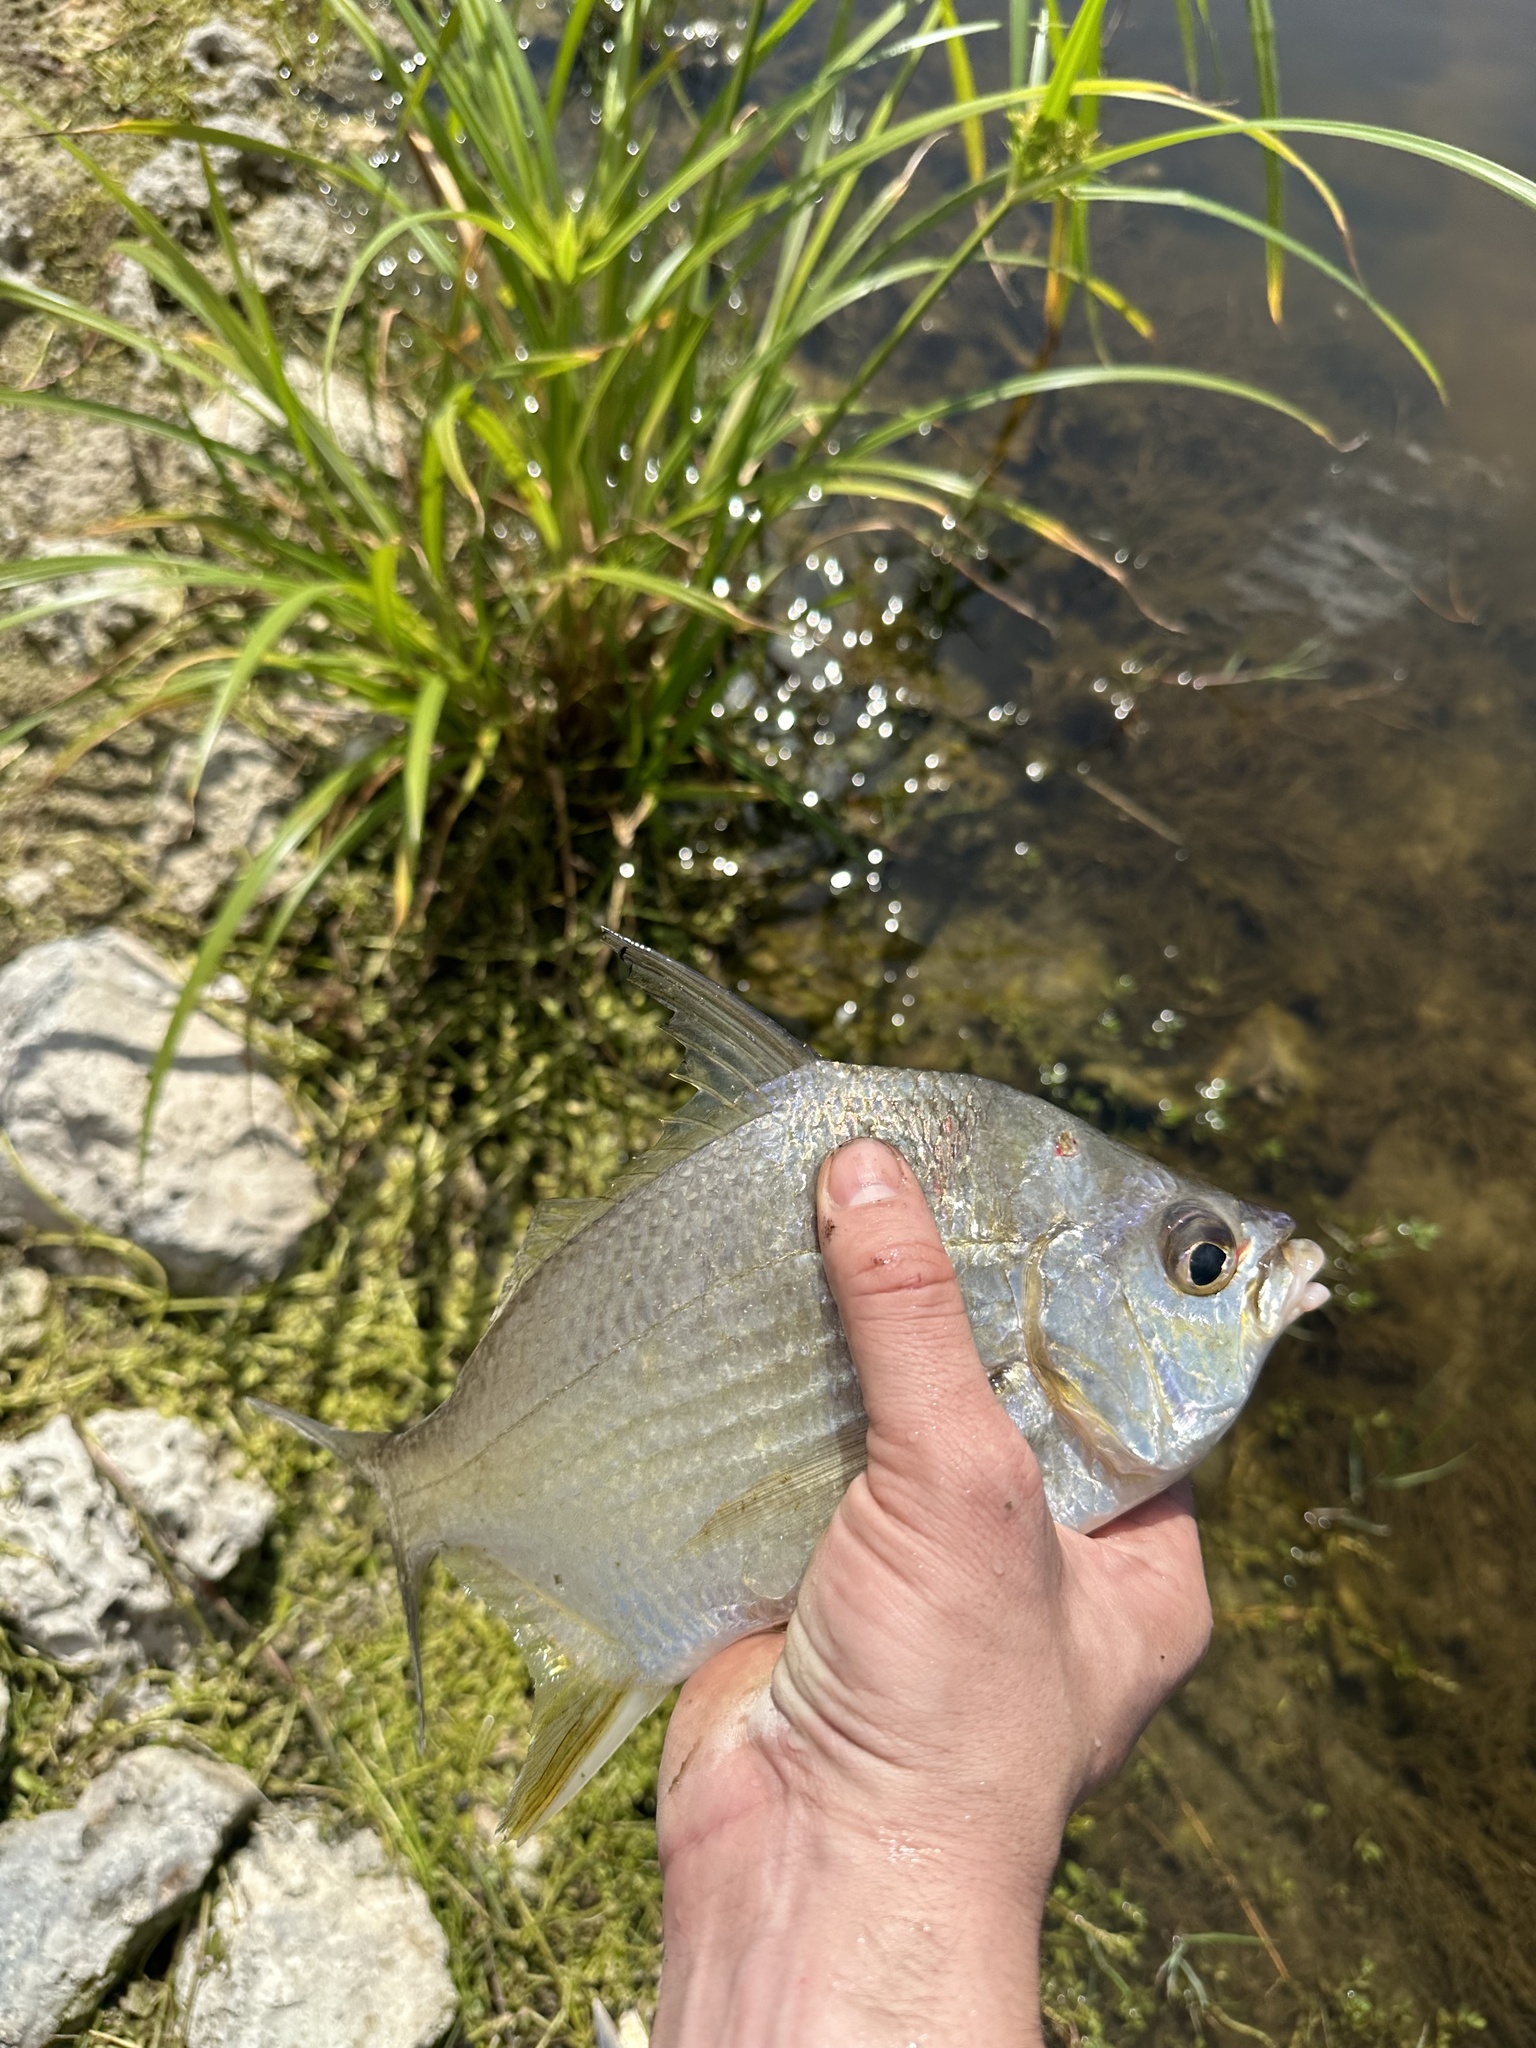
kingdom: Animalia
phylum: Chordata
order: Perciformes
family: Gerreidae
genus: Diapterus
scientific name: Diapterus auratus
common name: Broad shad
